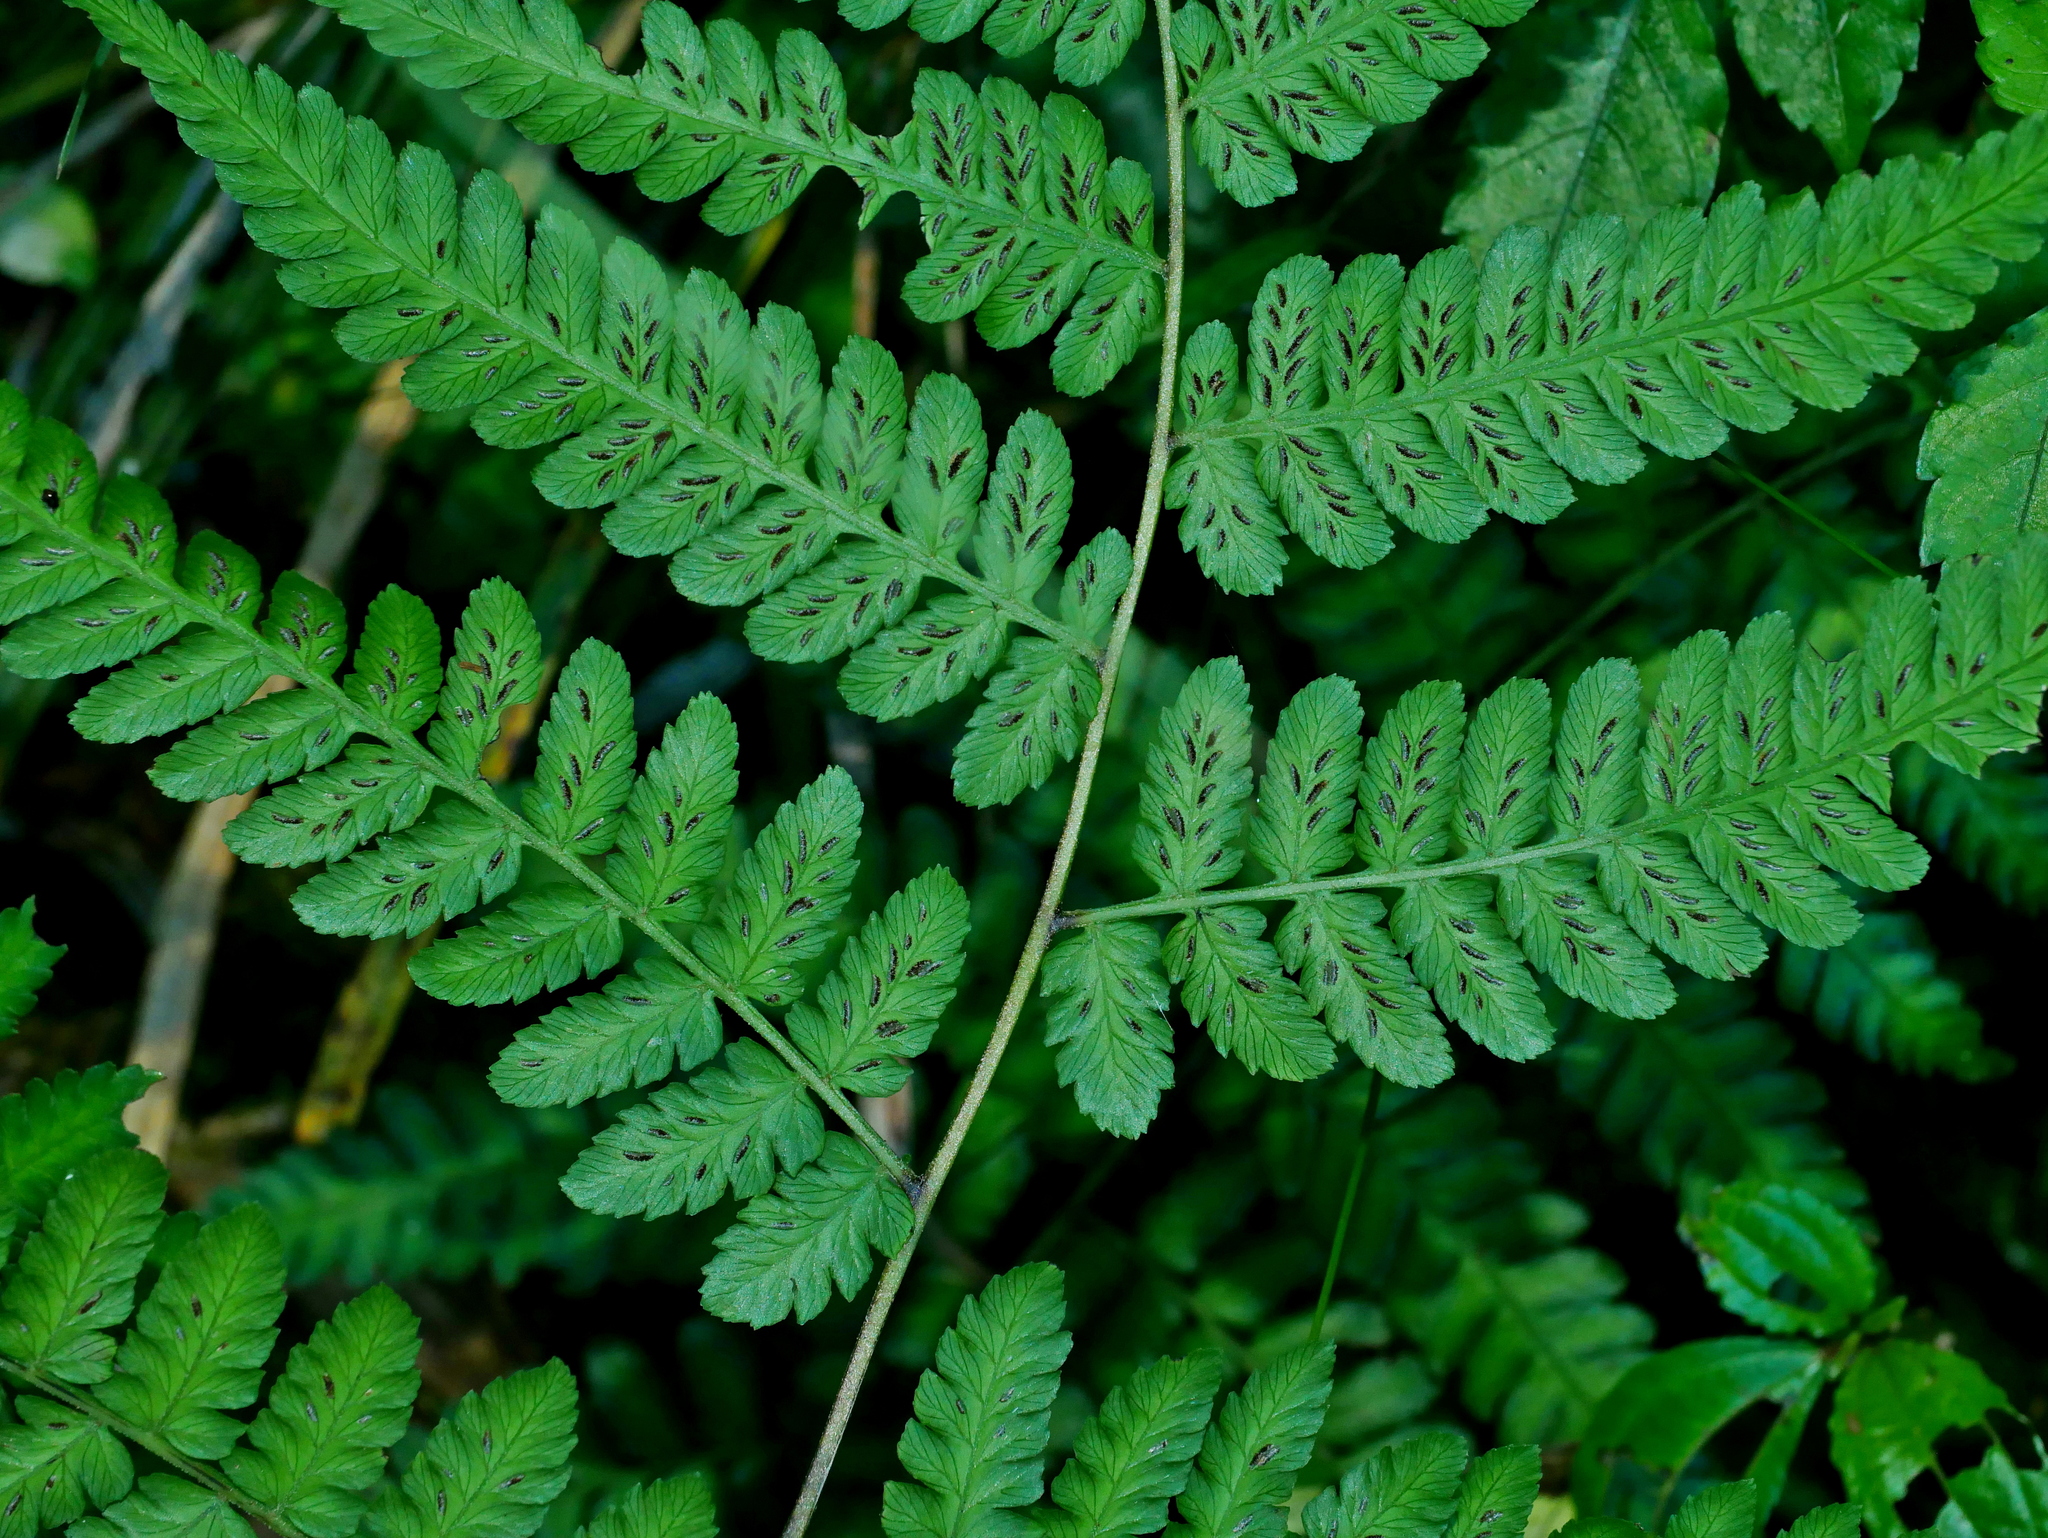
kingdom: Plantae
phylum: Tracheophyta
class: Polypodiopsida
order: Polypodiales
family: Athyriaceae
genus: Diplazium
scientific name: Diplazium laxifrons
